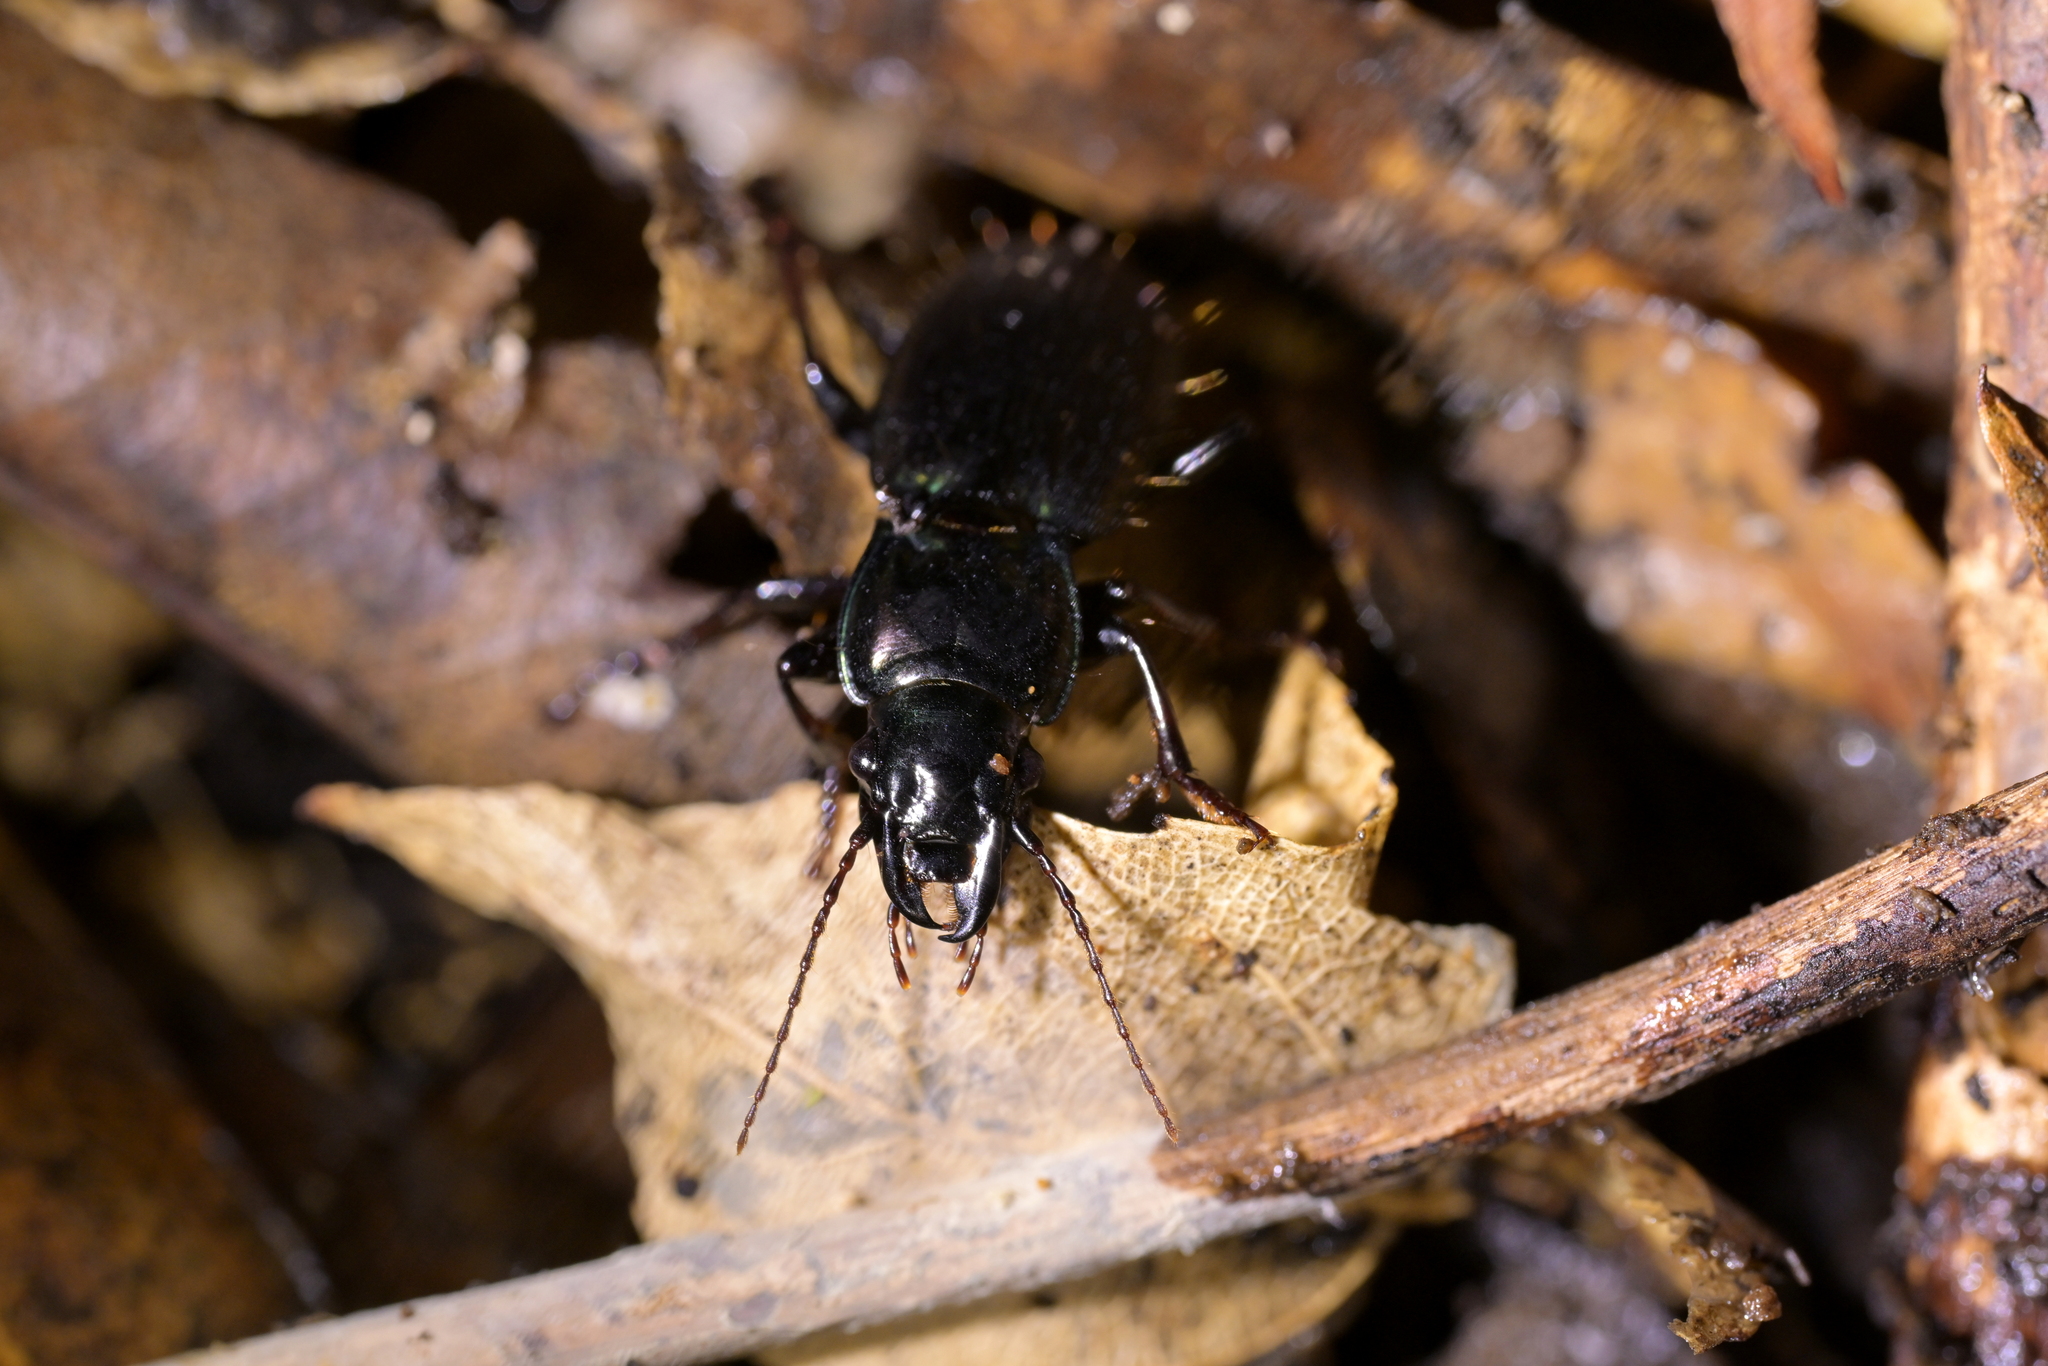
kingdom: Animalia
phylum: Arthropoda
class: Insecta
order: Coleoptera
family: Carabidae
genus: Megadromus
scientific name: Megadromus capito
